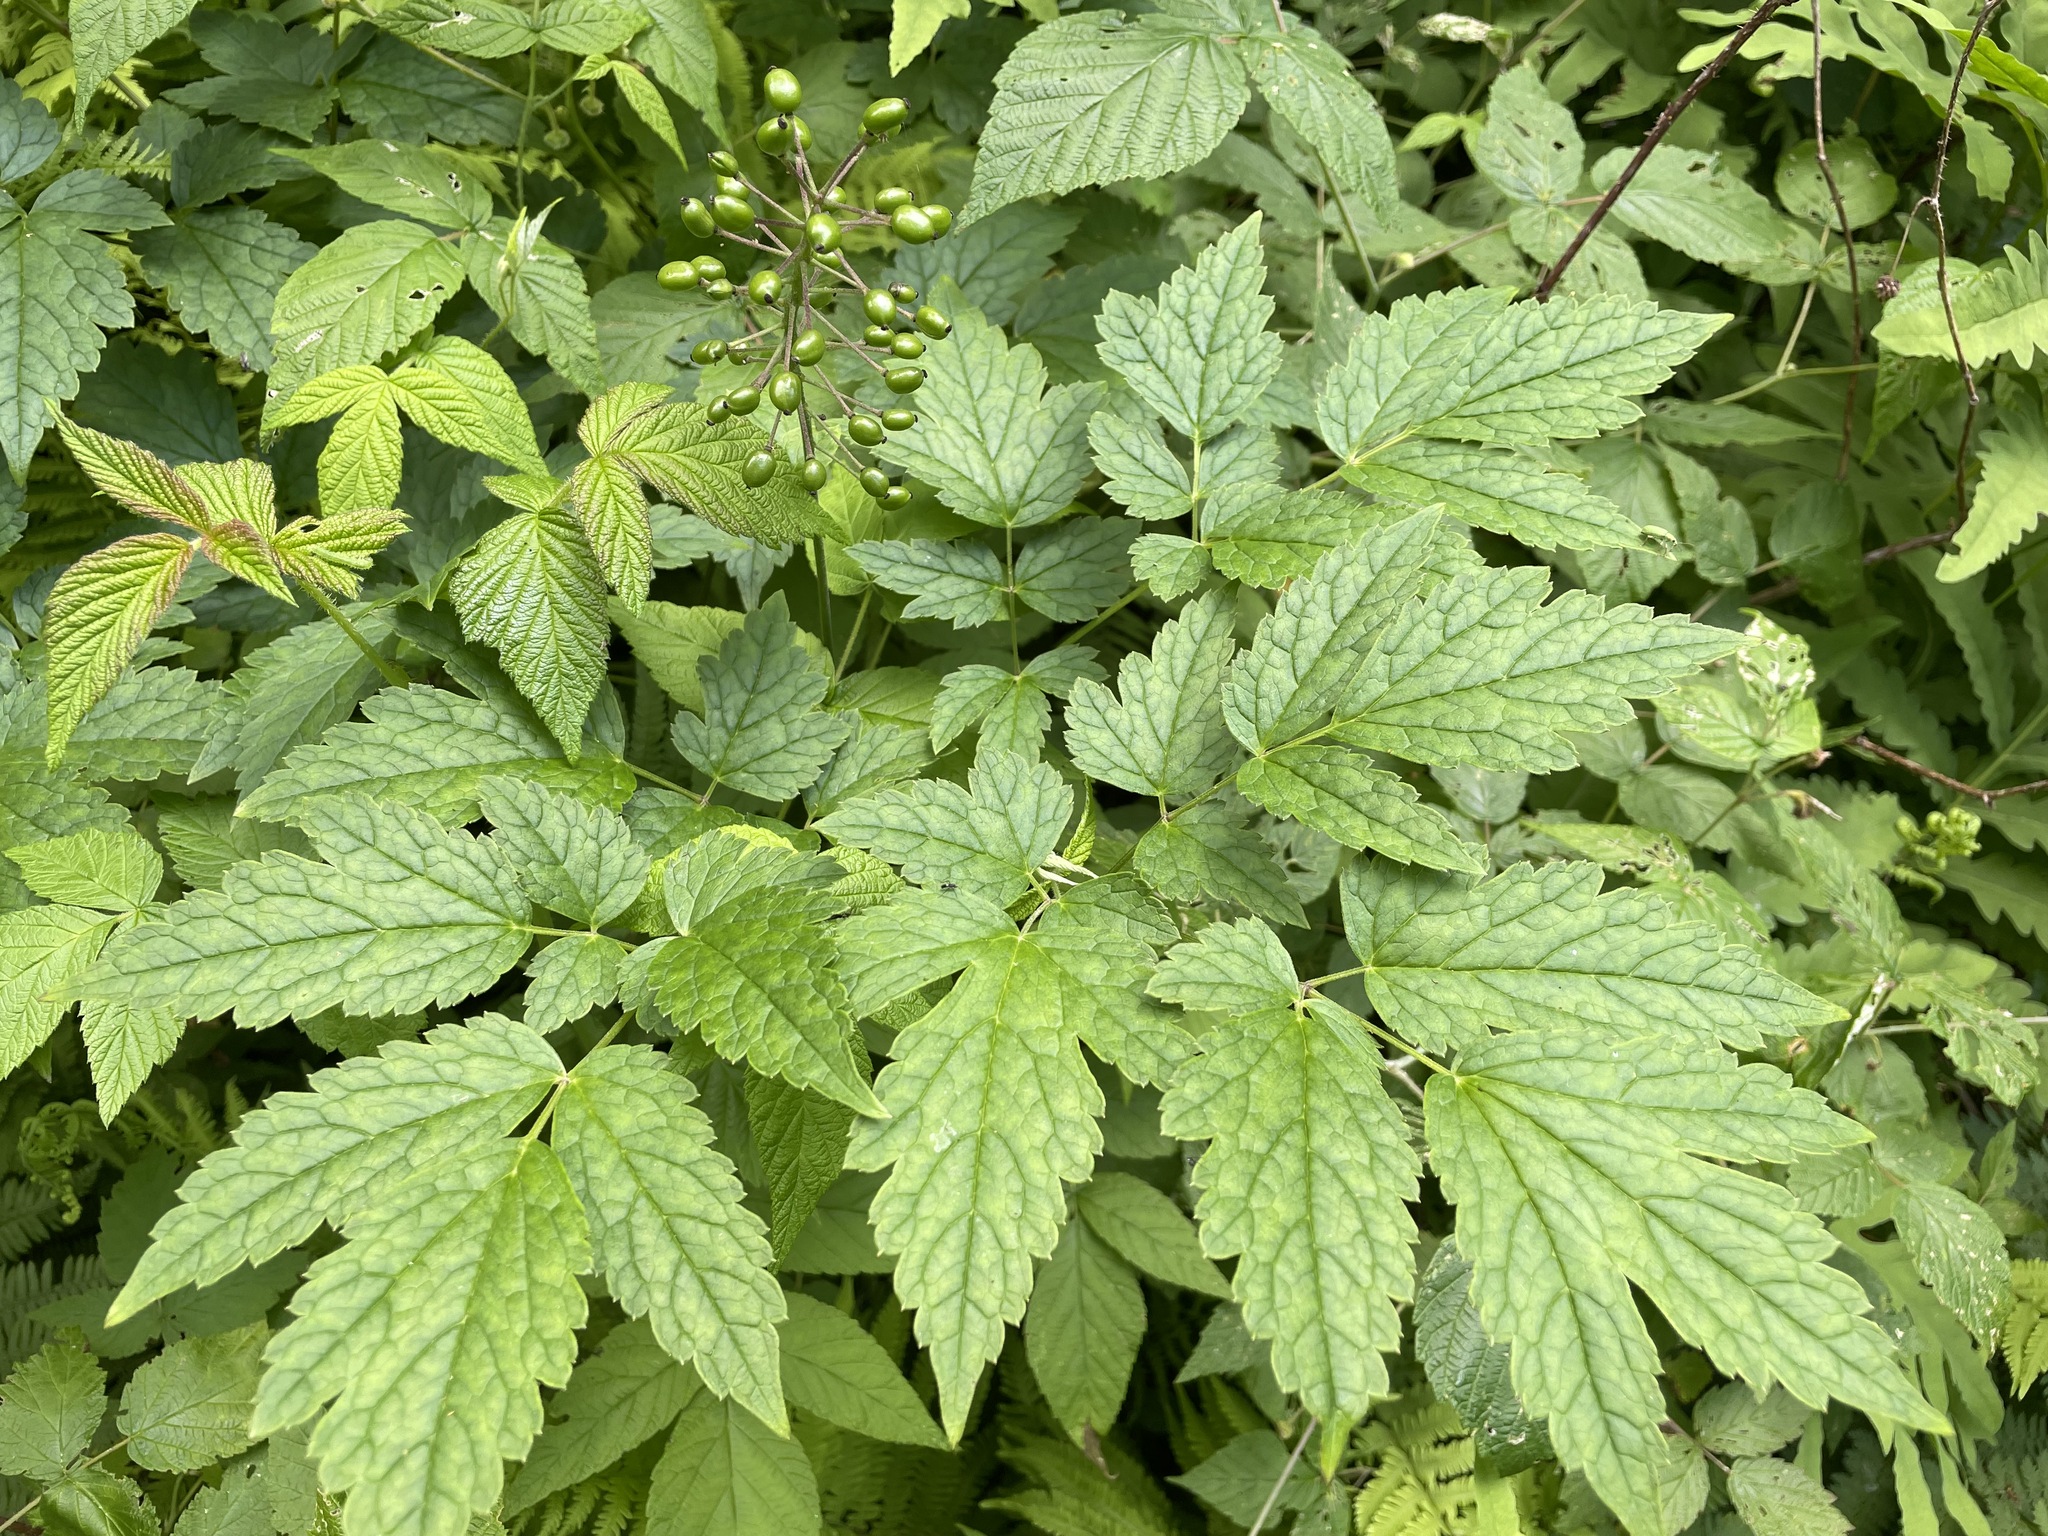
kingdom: Plantae
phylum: Tracheophyta
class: Magnoliopsida
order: Ranunculales
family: Ranunculaceae
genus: Actaea
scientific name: Actaea rubra
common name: Red baneberry
